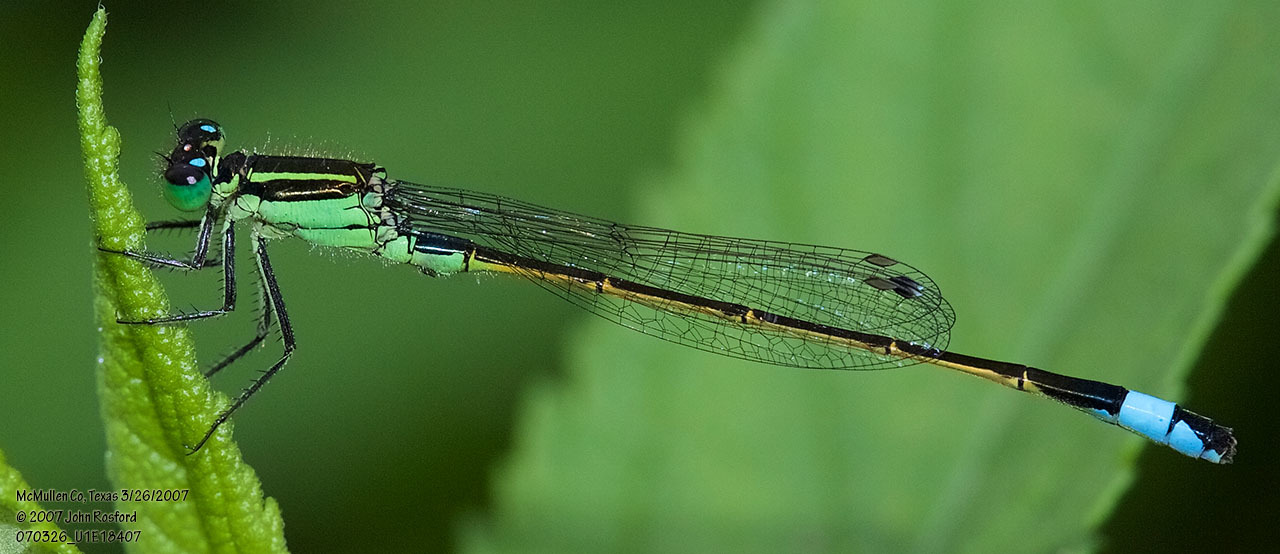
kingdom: Animalia
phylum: Arthropoda
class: Insecta
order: Odonata
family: Coenagrionidae
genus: Ischnura
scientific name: Ischnura ramburii
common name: Rambur's forktail
